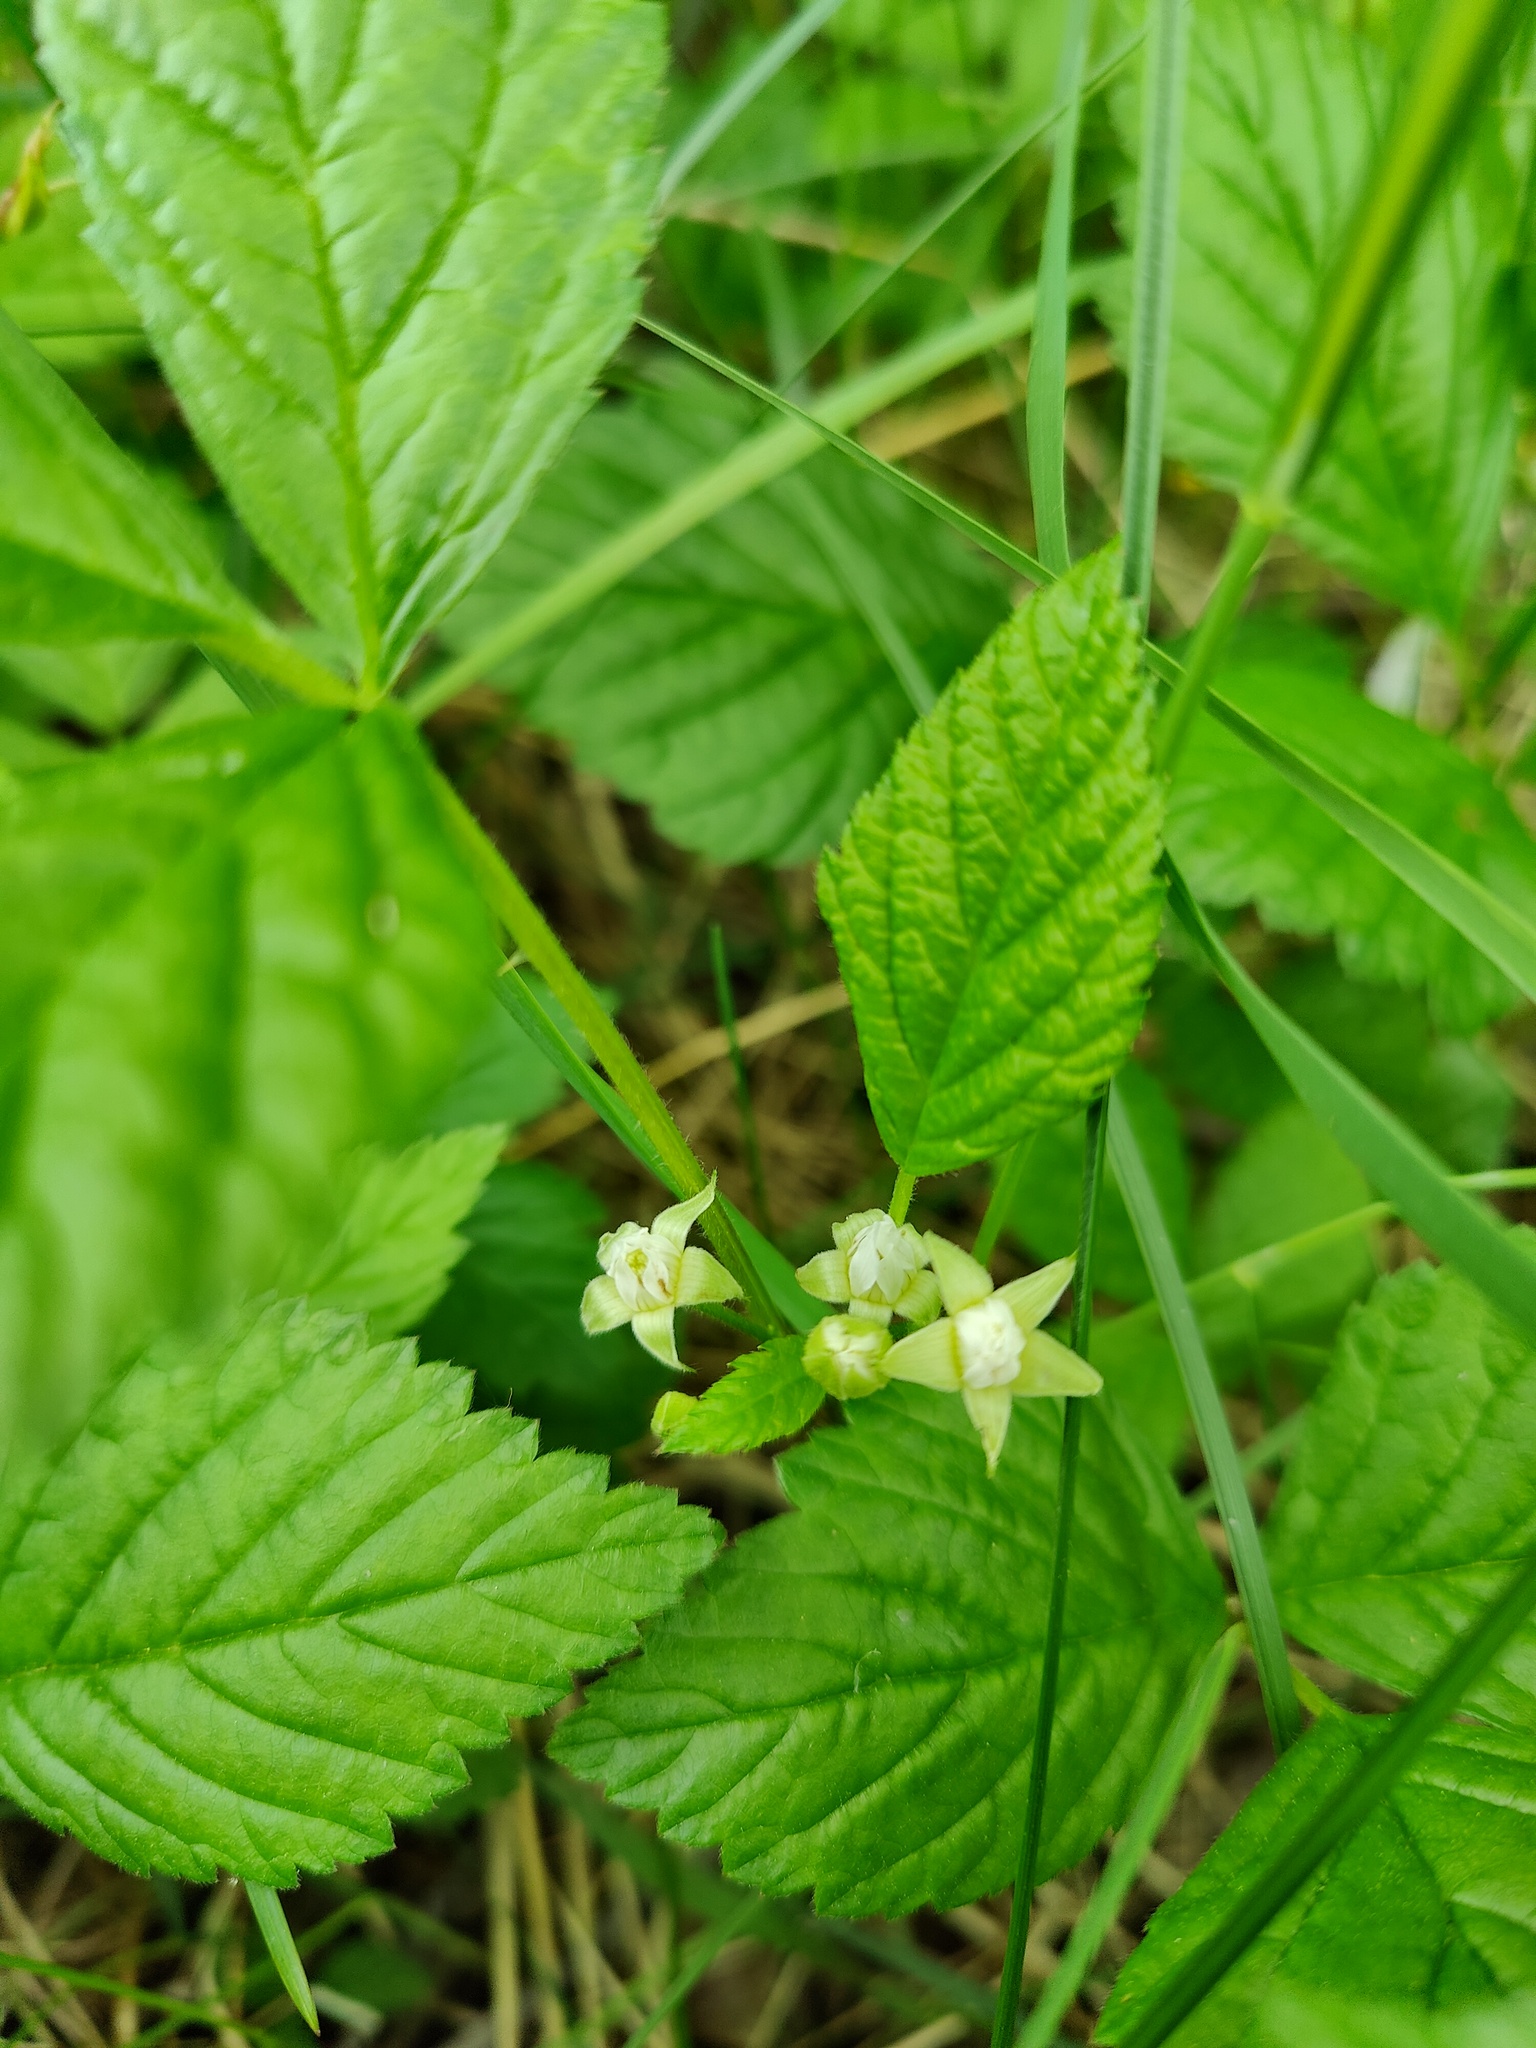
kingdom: Plantae
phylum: Tracheophyta
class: Magnoliopsida
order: Rosales
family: Rosaceae
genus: Rubus
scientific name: Rubus saxatilis
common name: Stone bramble
